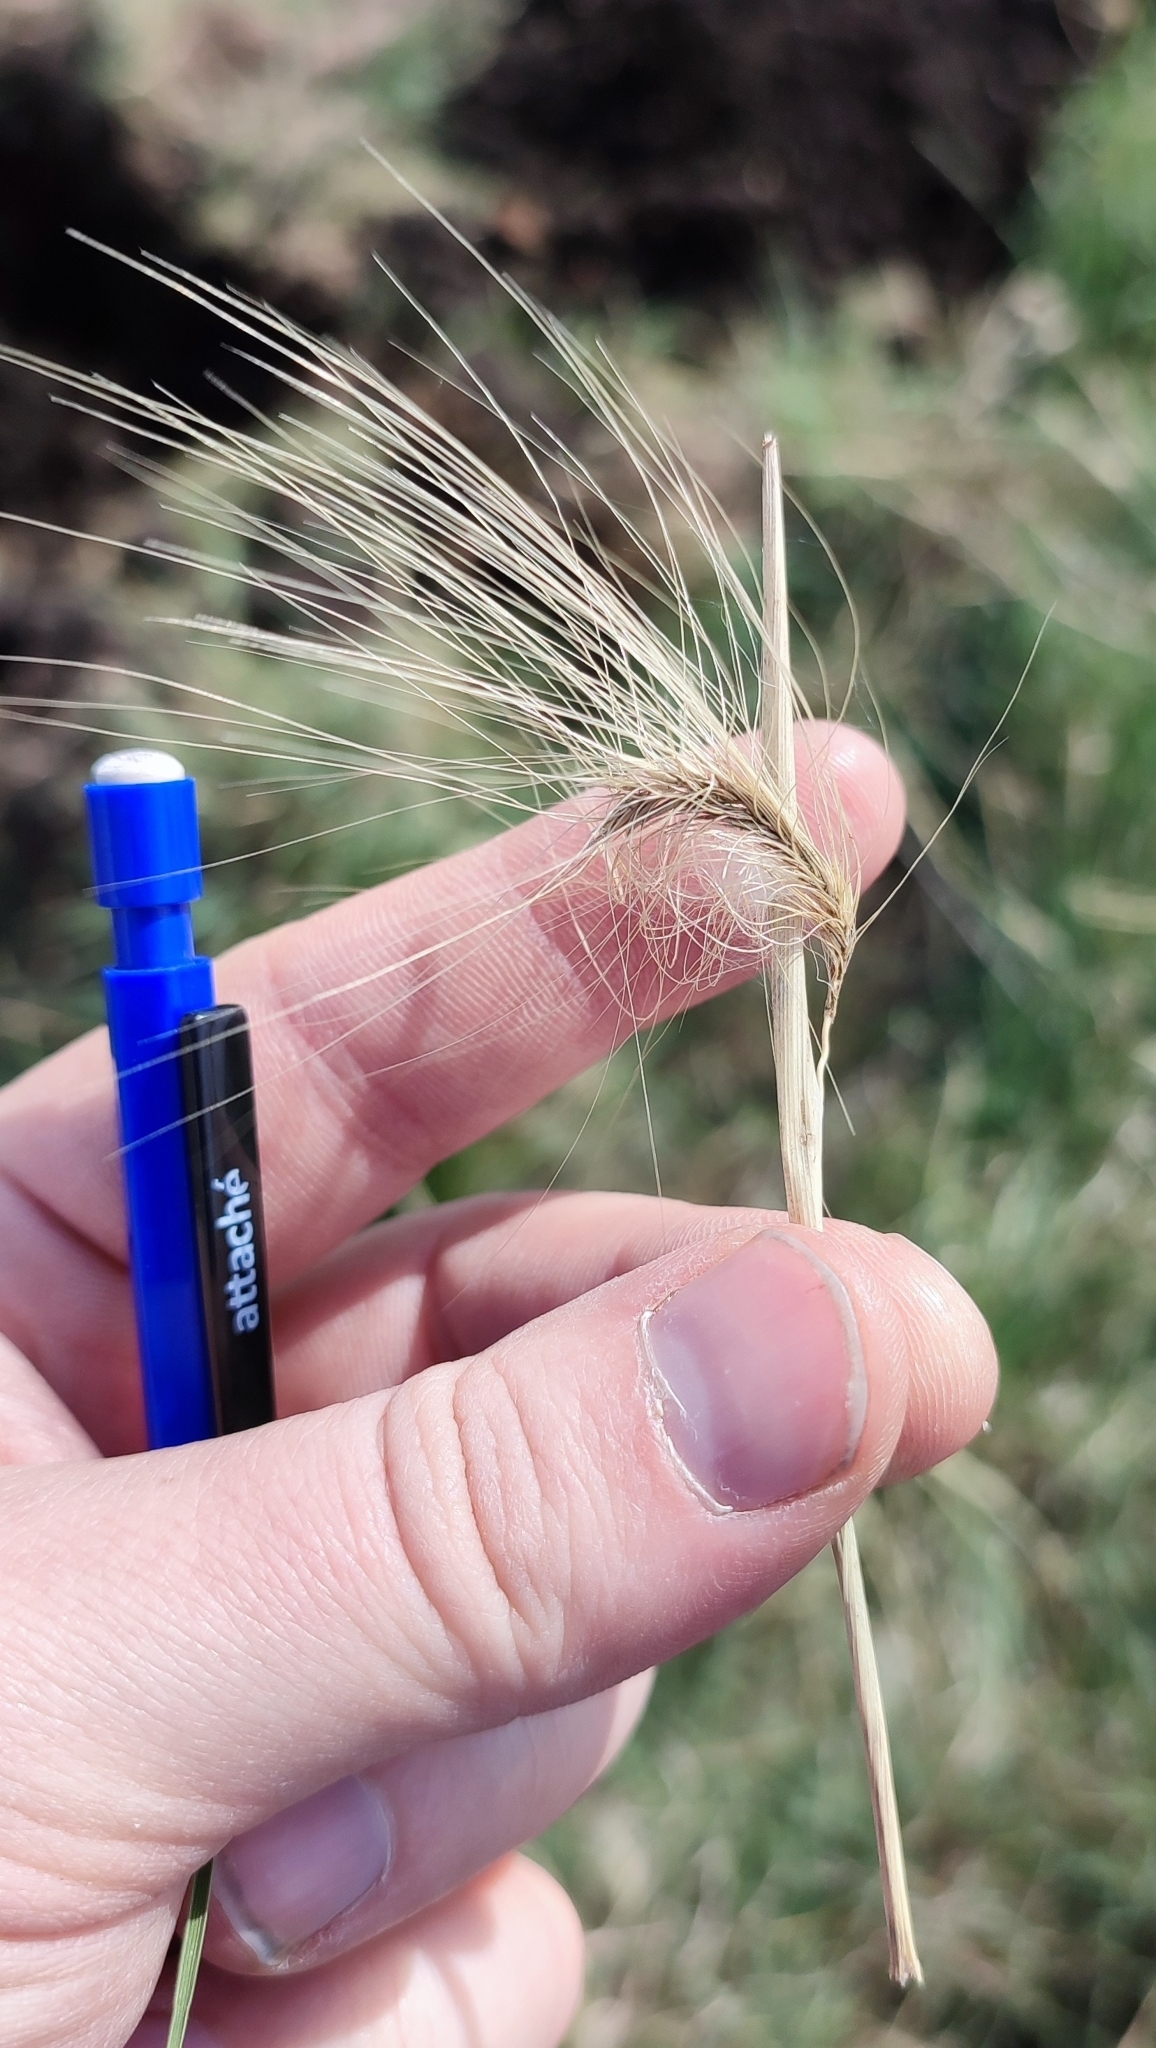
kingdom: Plantae
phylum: Tracheophyta
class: Liliopsida
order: Poales
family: Poaceae
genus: Hordeum
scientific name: Hordeum jubatum
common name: Foxtail barley
